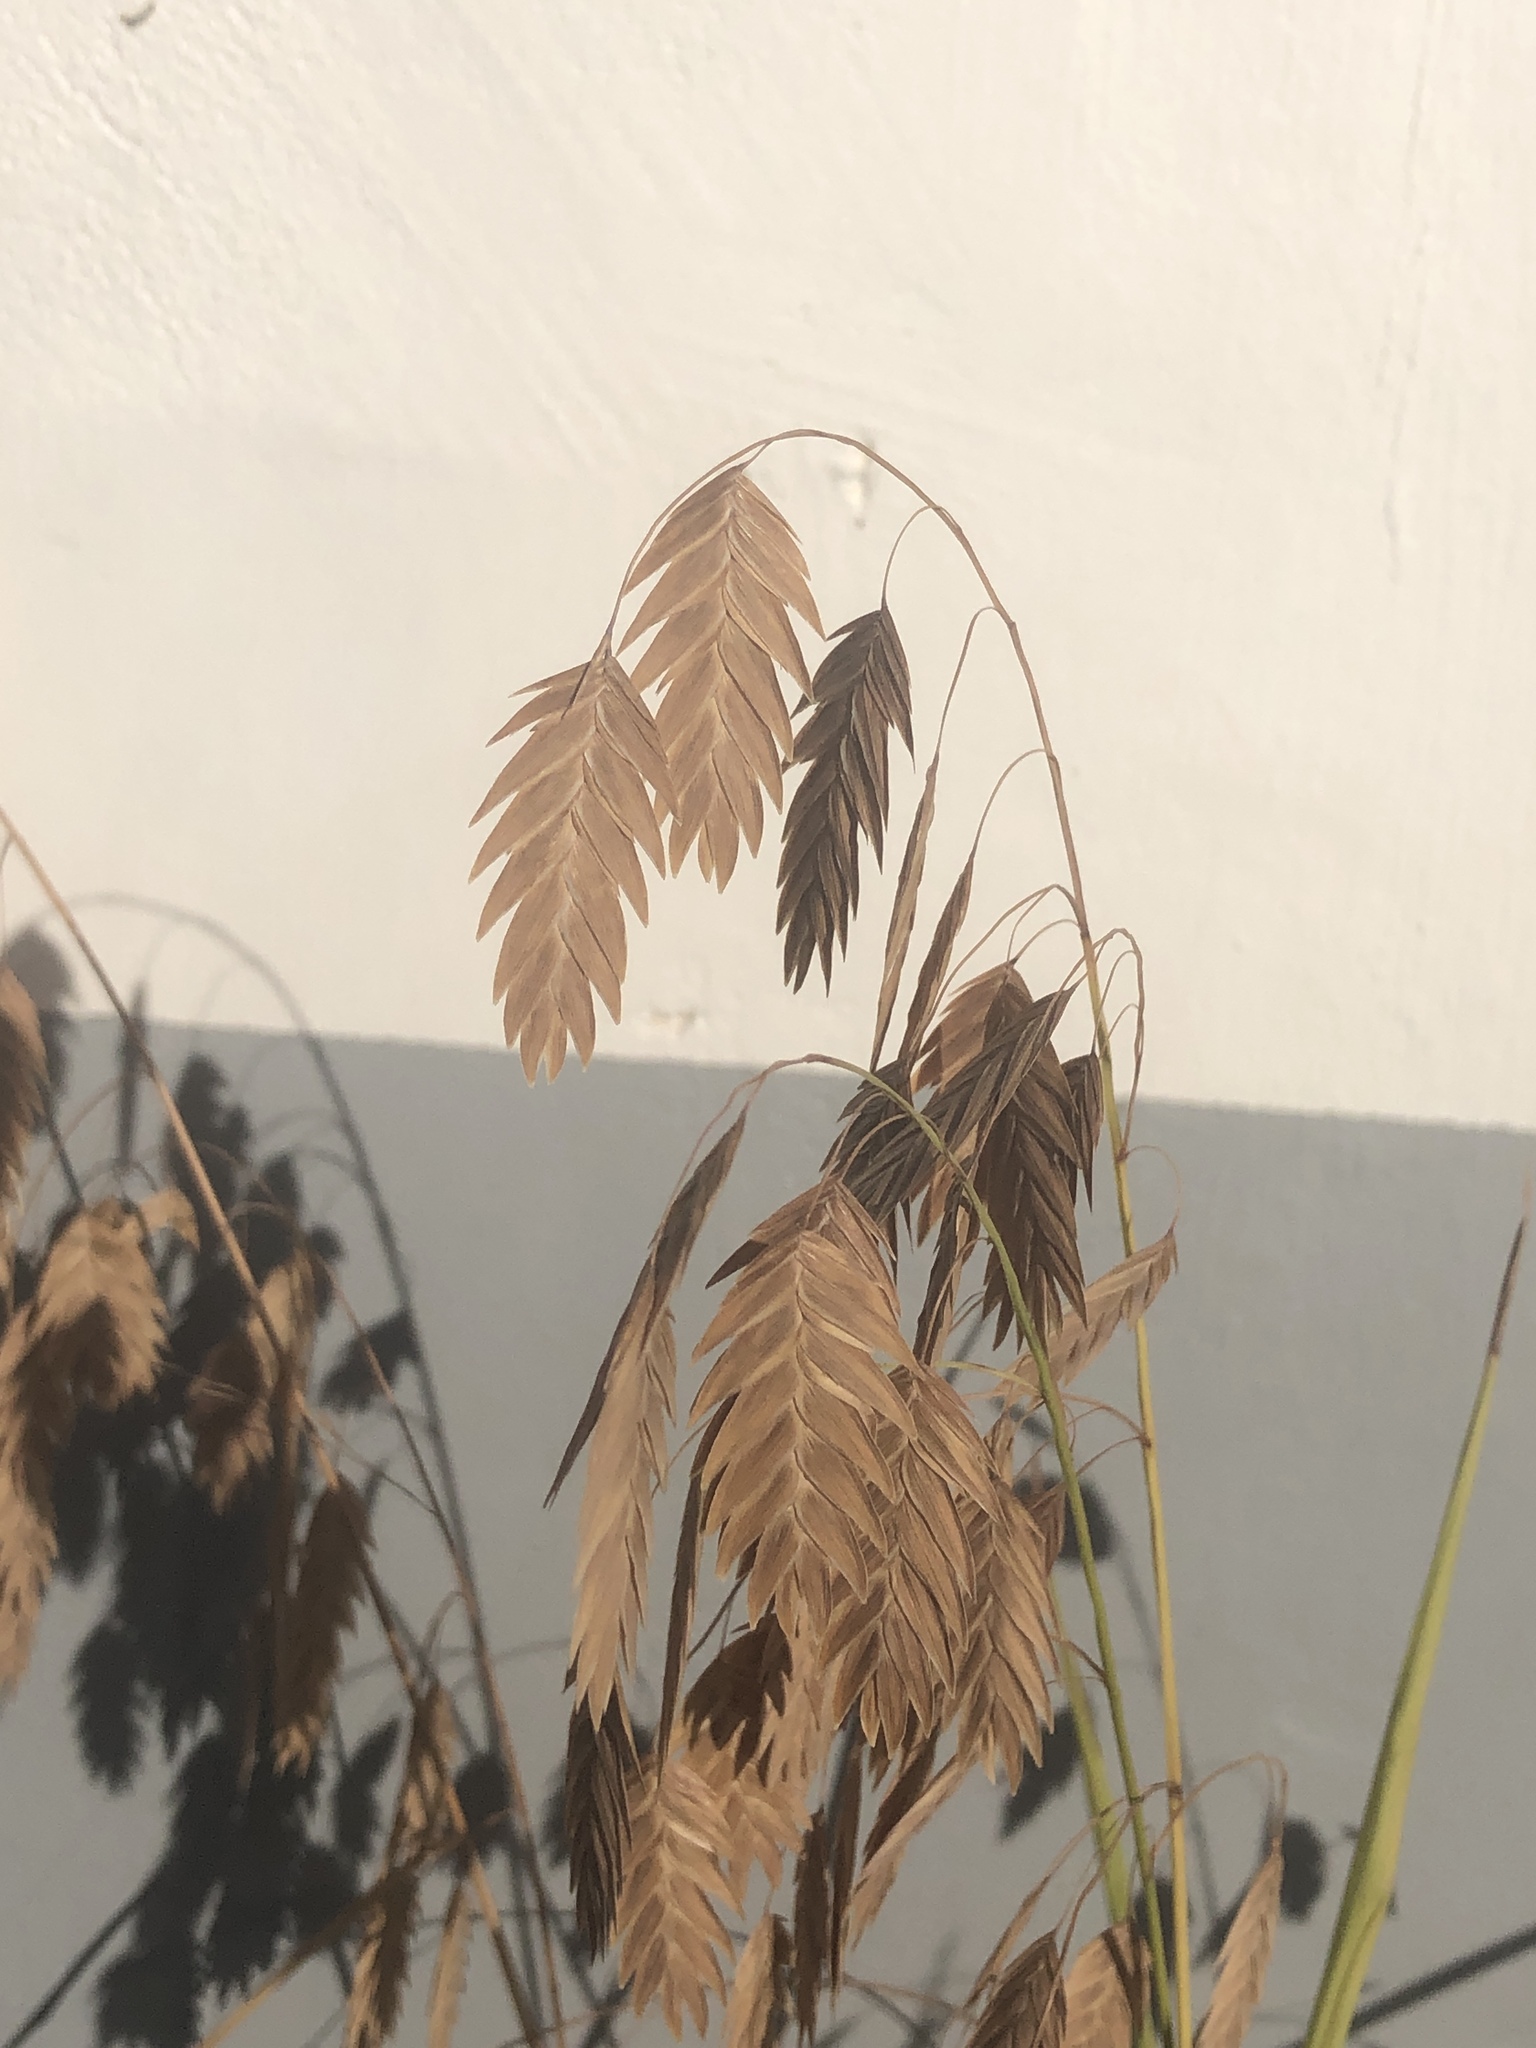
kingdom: Plantae
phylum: Tracheophyta
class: Liliopsida
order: Poales
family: Poaceae
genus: Chasmanthium
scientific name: Chasmanthium latifolium
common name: Broad-leaved chasmanthium
